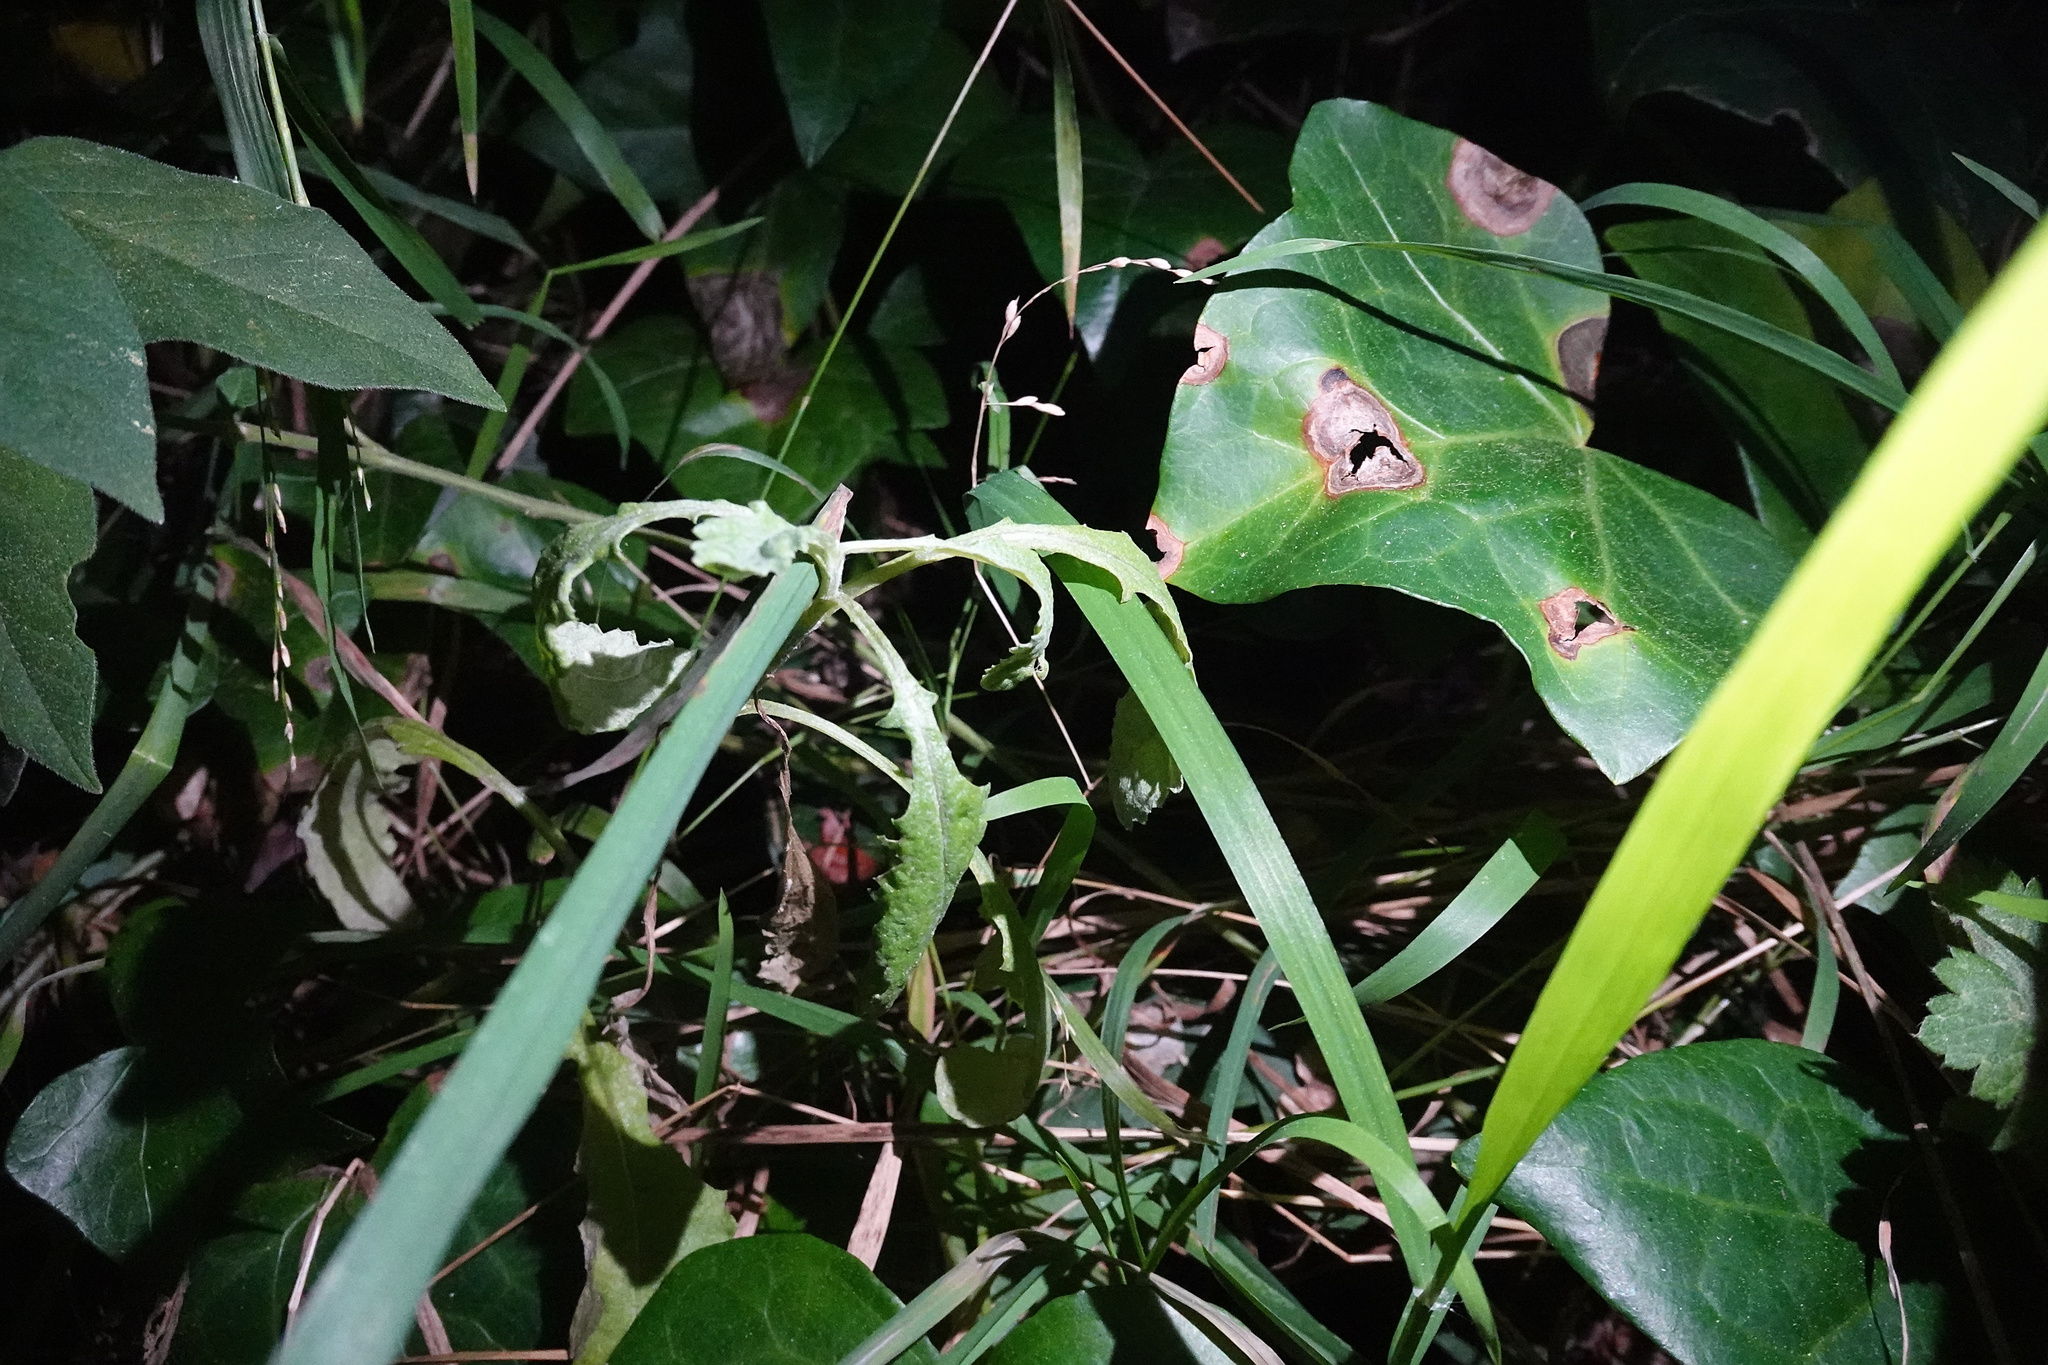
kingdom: Plantae
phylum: Tracheophyta
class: Magnoliopsida
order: Asterales
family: Asteraceae
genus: Senecio
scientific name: Senecio glomeratus
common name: Cutleaf burnweed
